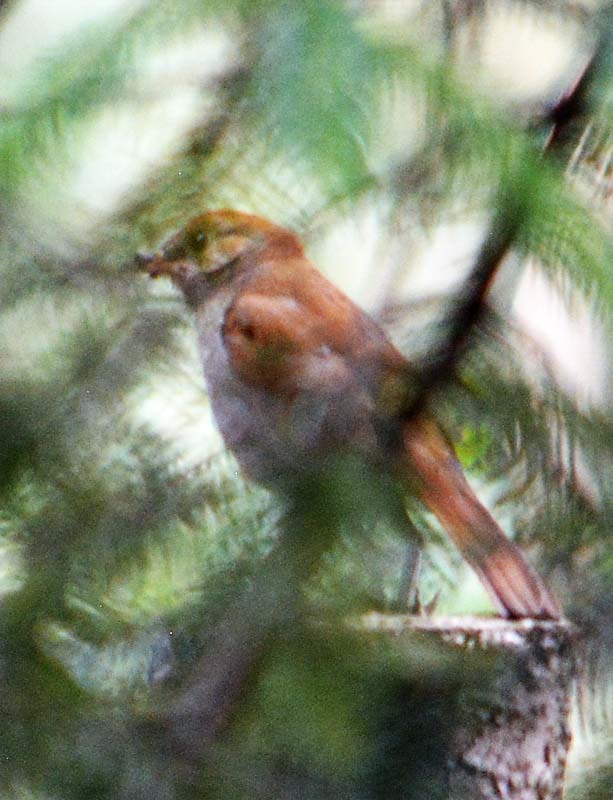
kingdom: Animalia
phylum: Chordata
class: Aves
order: Passeriformes
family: Turdidae
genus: Catharus
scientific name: Catharus frantzii
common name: Ruddy-capped nightingale-thrush
